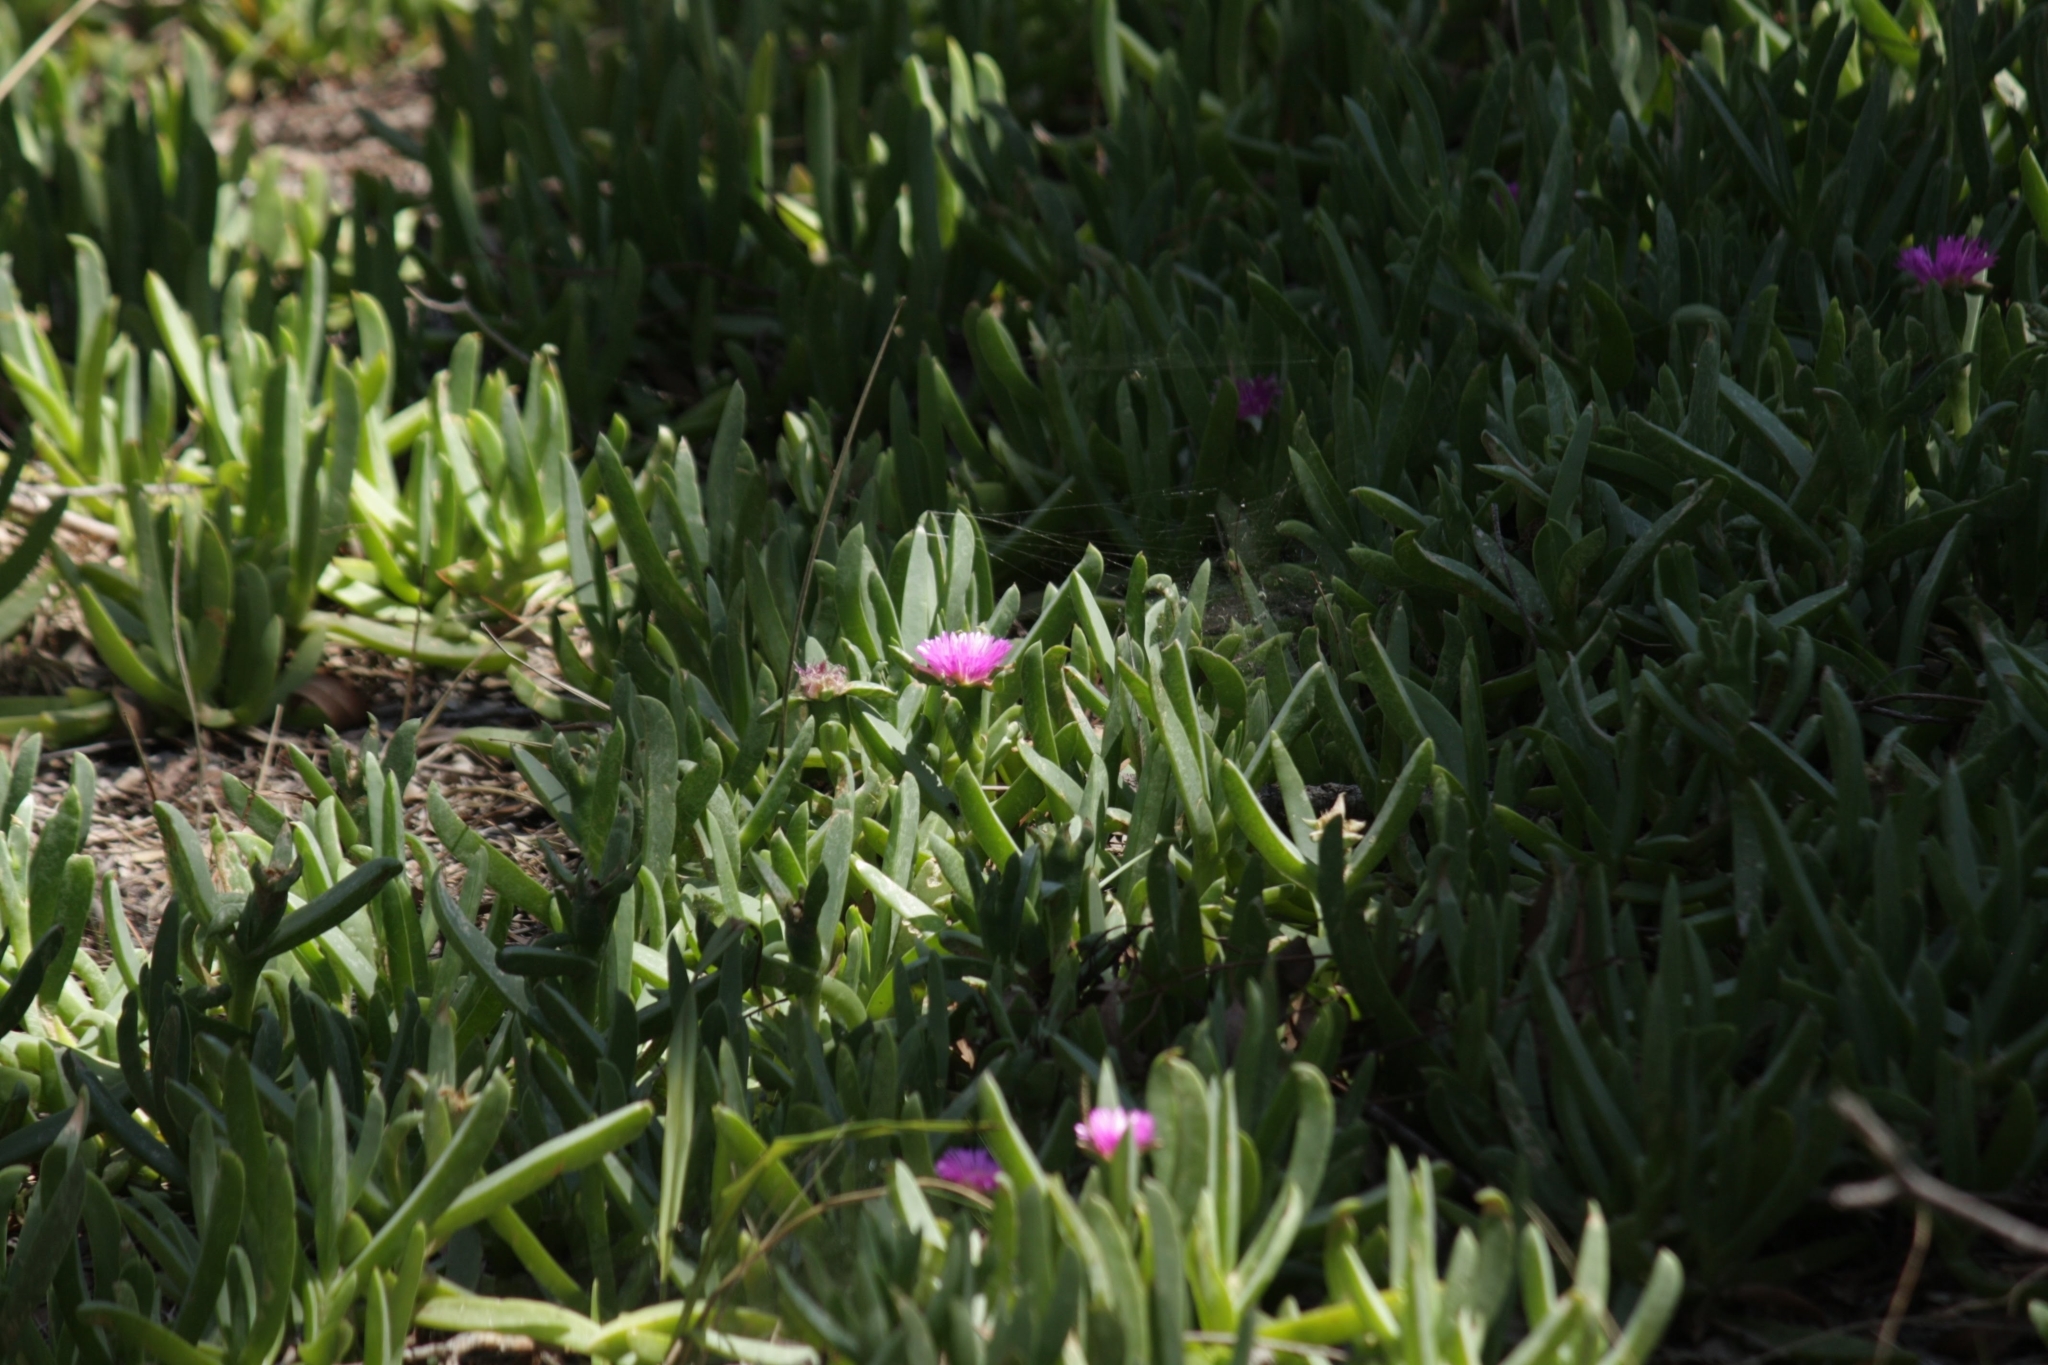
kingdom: Plantae
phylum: Tracheophyta
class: Magnoliopsida
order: Caryophyllales
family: Aizoaceae
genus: Carpobrotus
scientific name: Carpobrotus glaucescens
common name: Angular sea-fig
